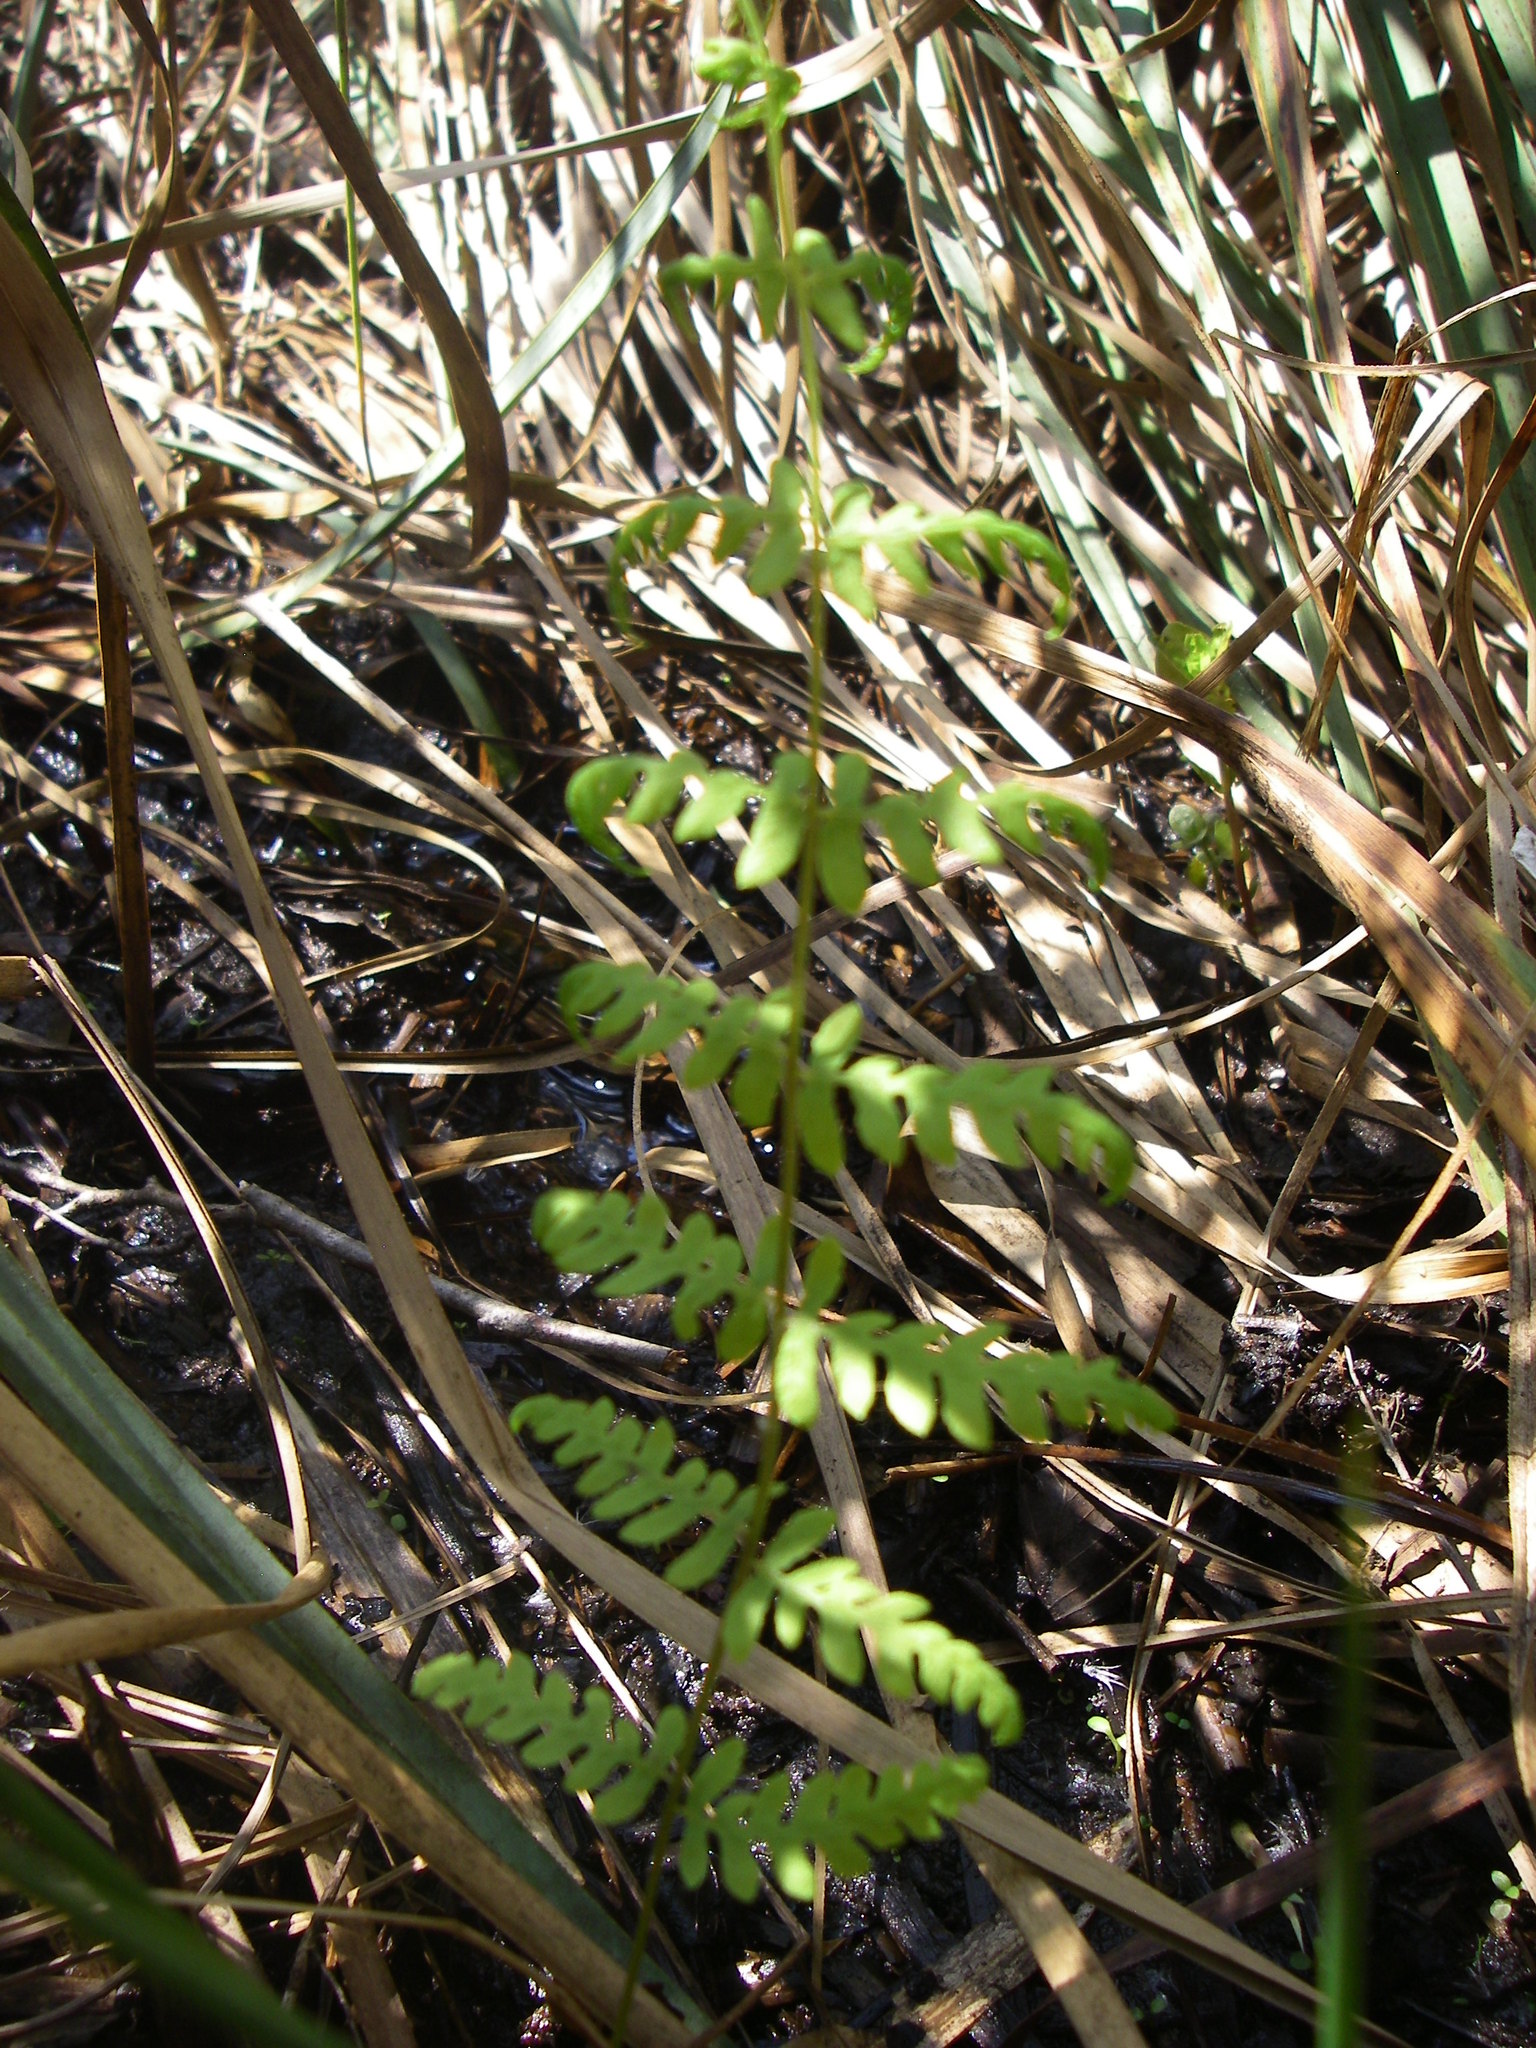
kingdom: Plantae
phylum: Tracheophyta
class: Polypodiopsida
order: Polypodiales
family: Thelypteridaceae
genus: Thelypteris
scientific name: Thelypteris palustris
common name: Marsh fern
